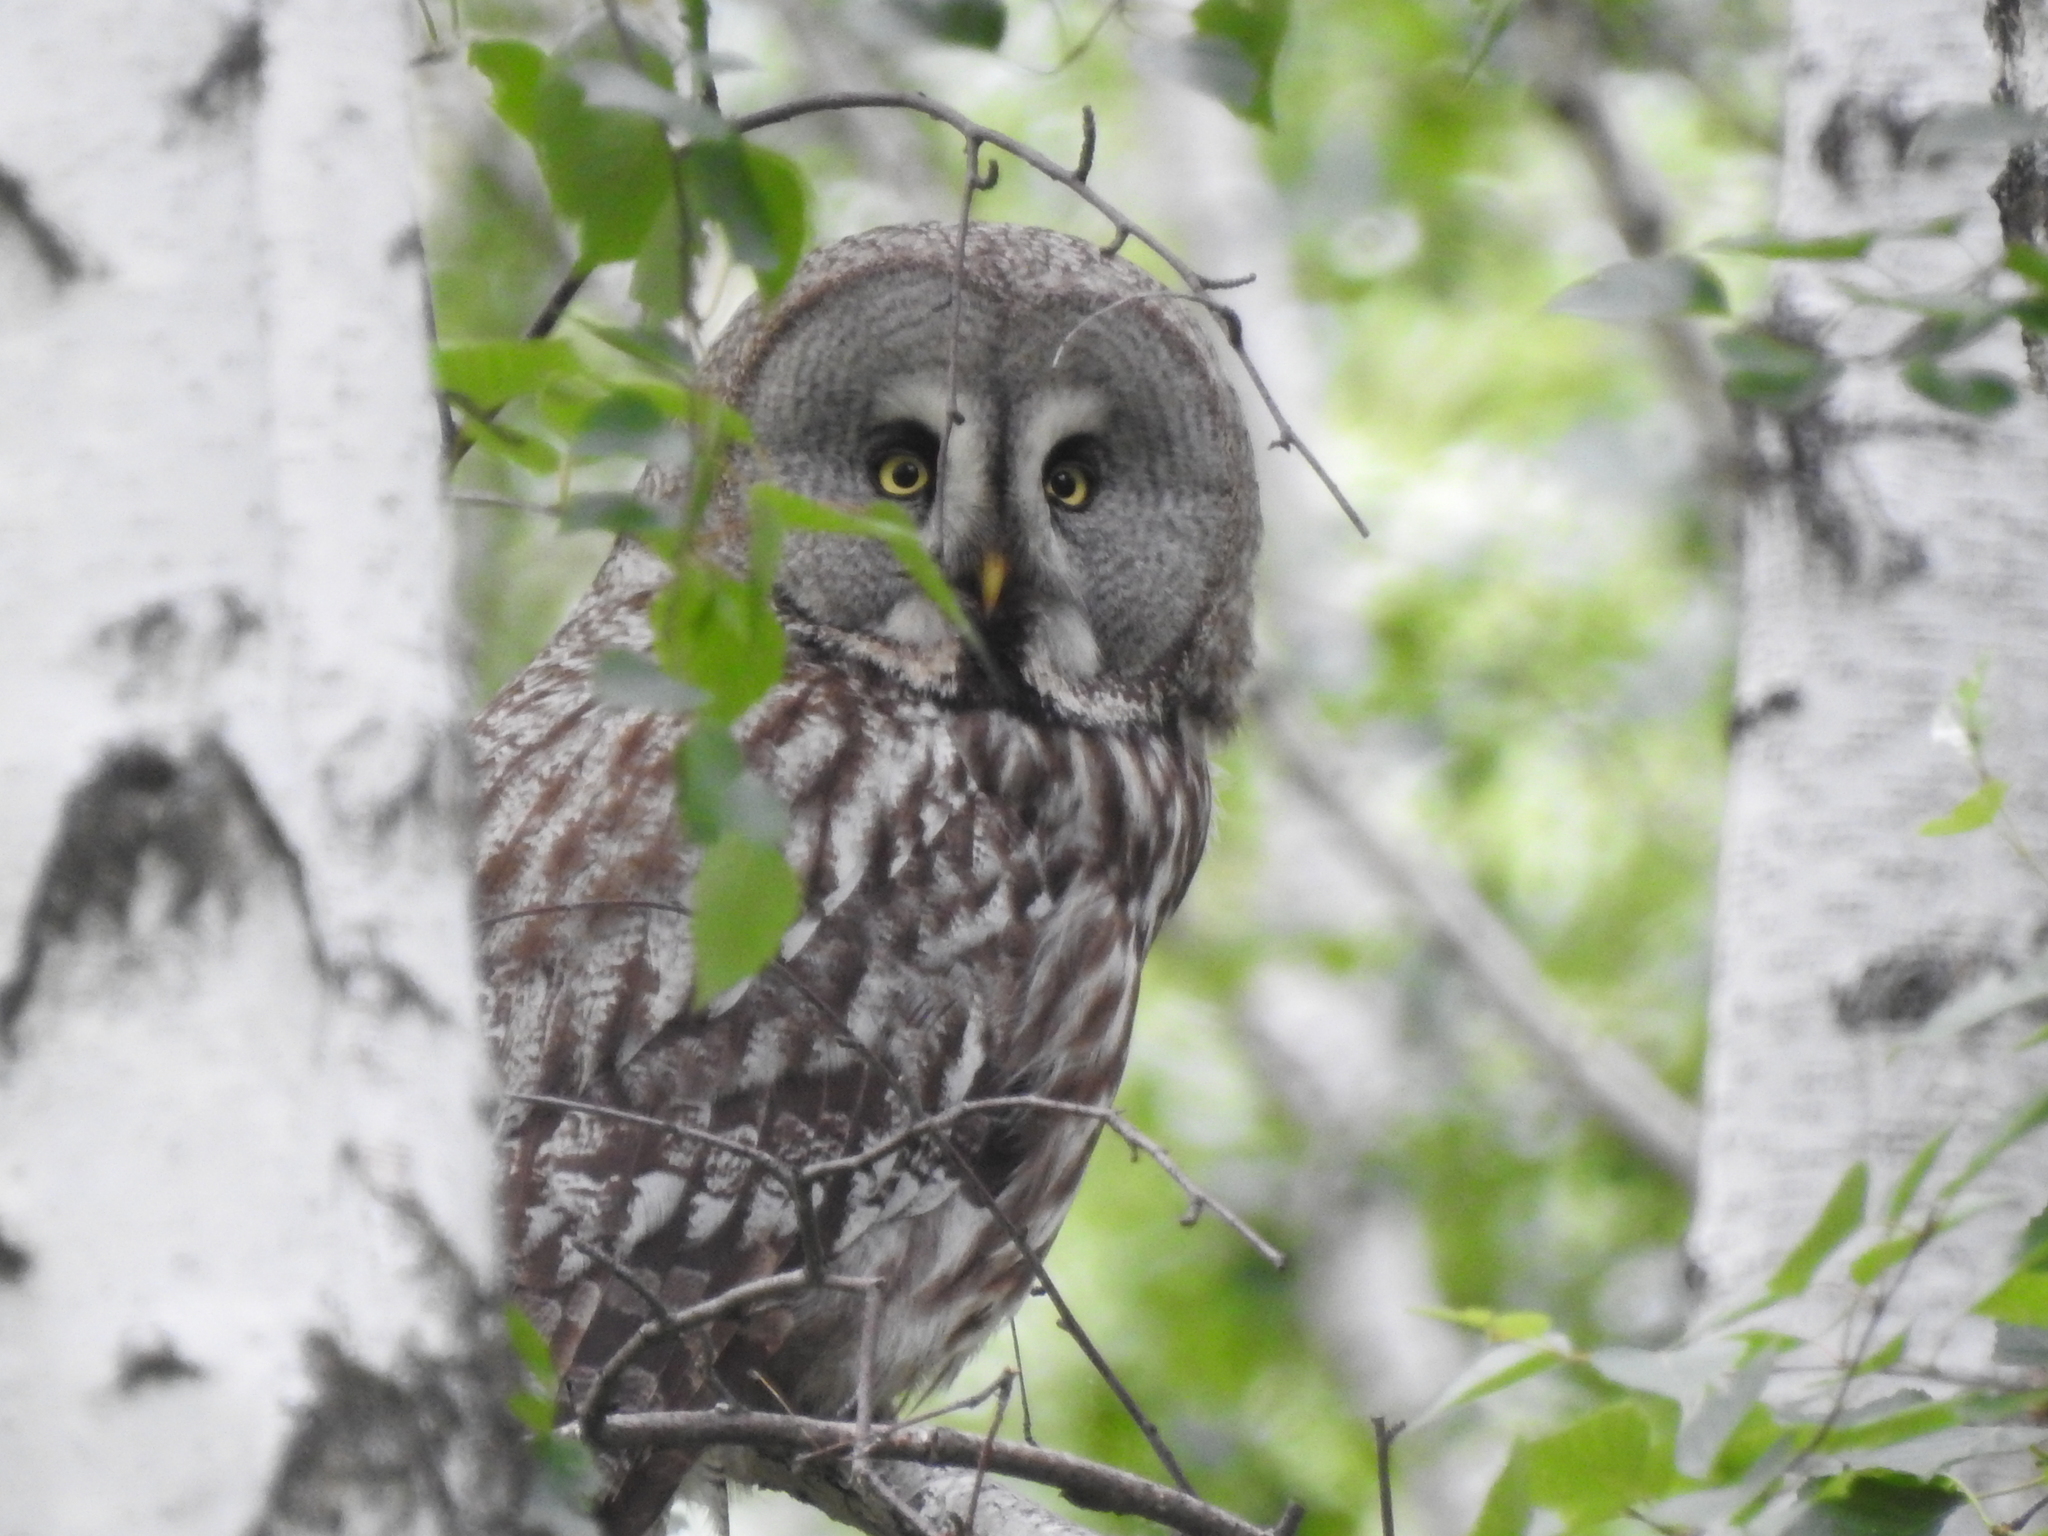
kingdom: Animalia
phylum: Chordata
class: Aves
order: Strigiformes
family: Strigidae
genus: Strix
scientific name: Strix nebulosa
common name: Great grey owl
